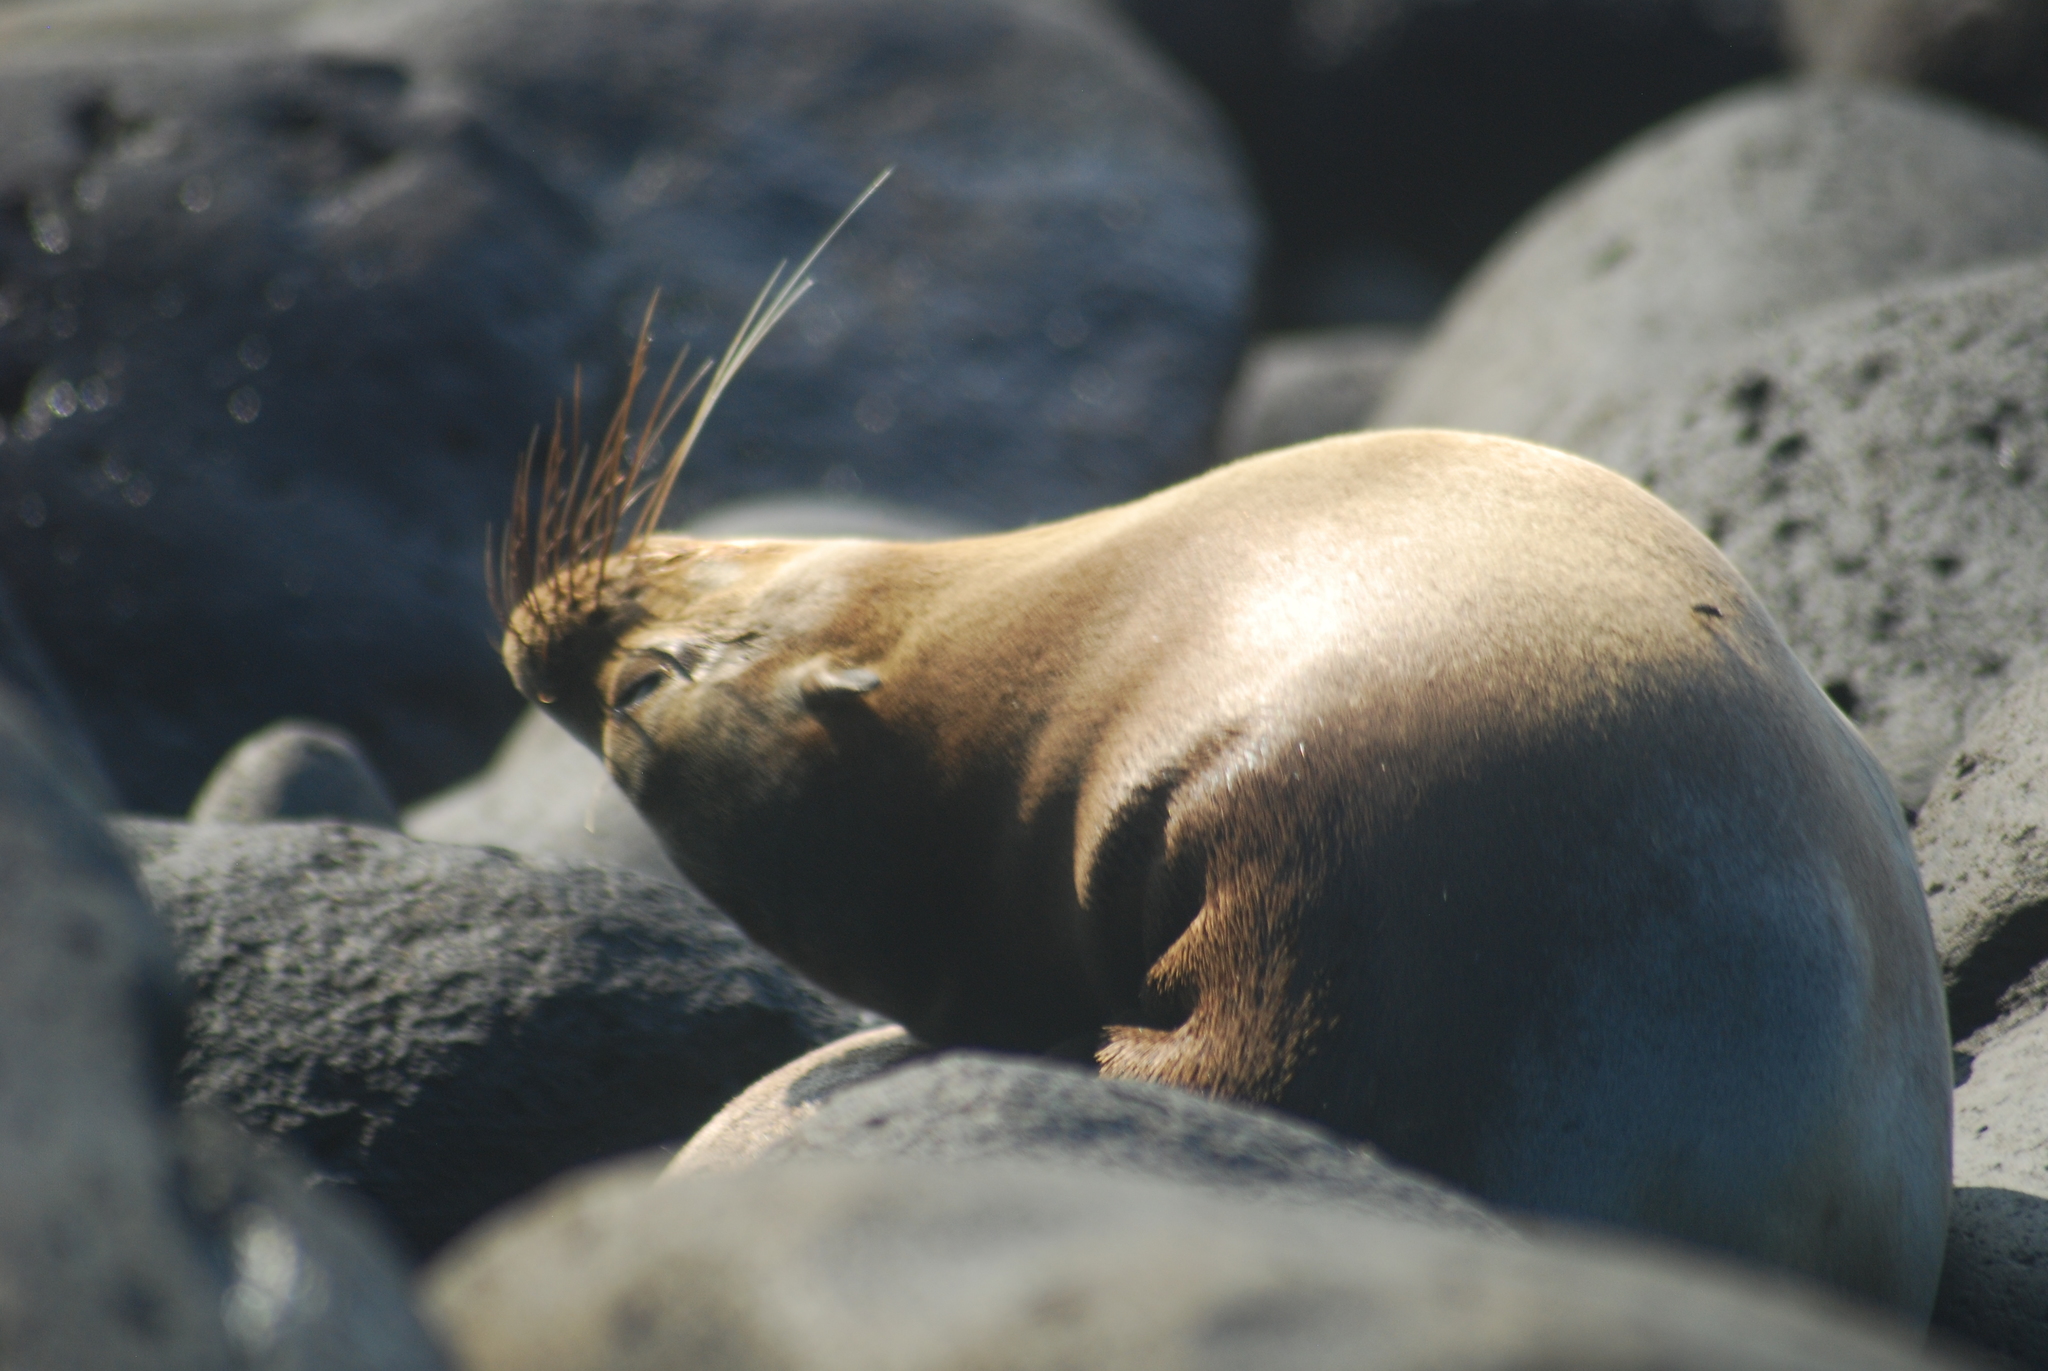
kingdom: Animalia
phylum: Chordata
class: Mammalia
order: Carnivora
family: Otariidae
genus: Zalophus
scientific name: Zalophus wollebaeki
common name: Galapagos sea lion
